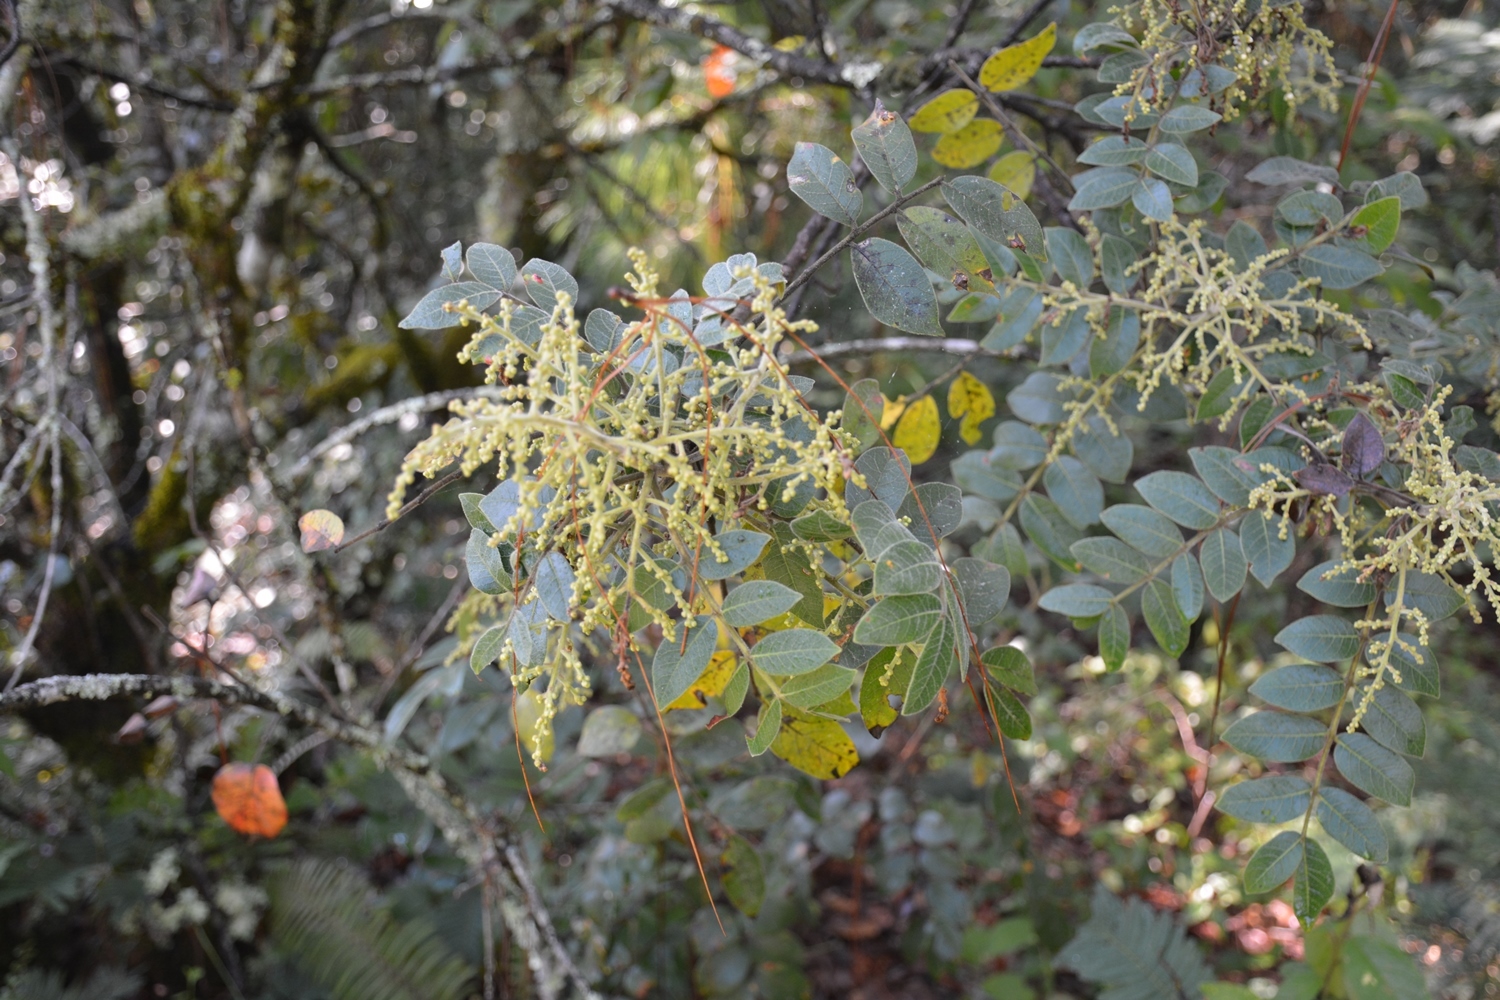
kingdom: Plantae
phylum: Tracheophyta
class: Magnoliopsida
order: Sapindales
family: Anacardiaceae
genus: Rhus
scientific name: Rhus schiedeana
